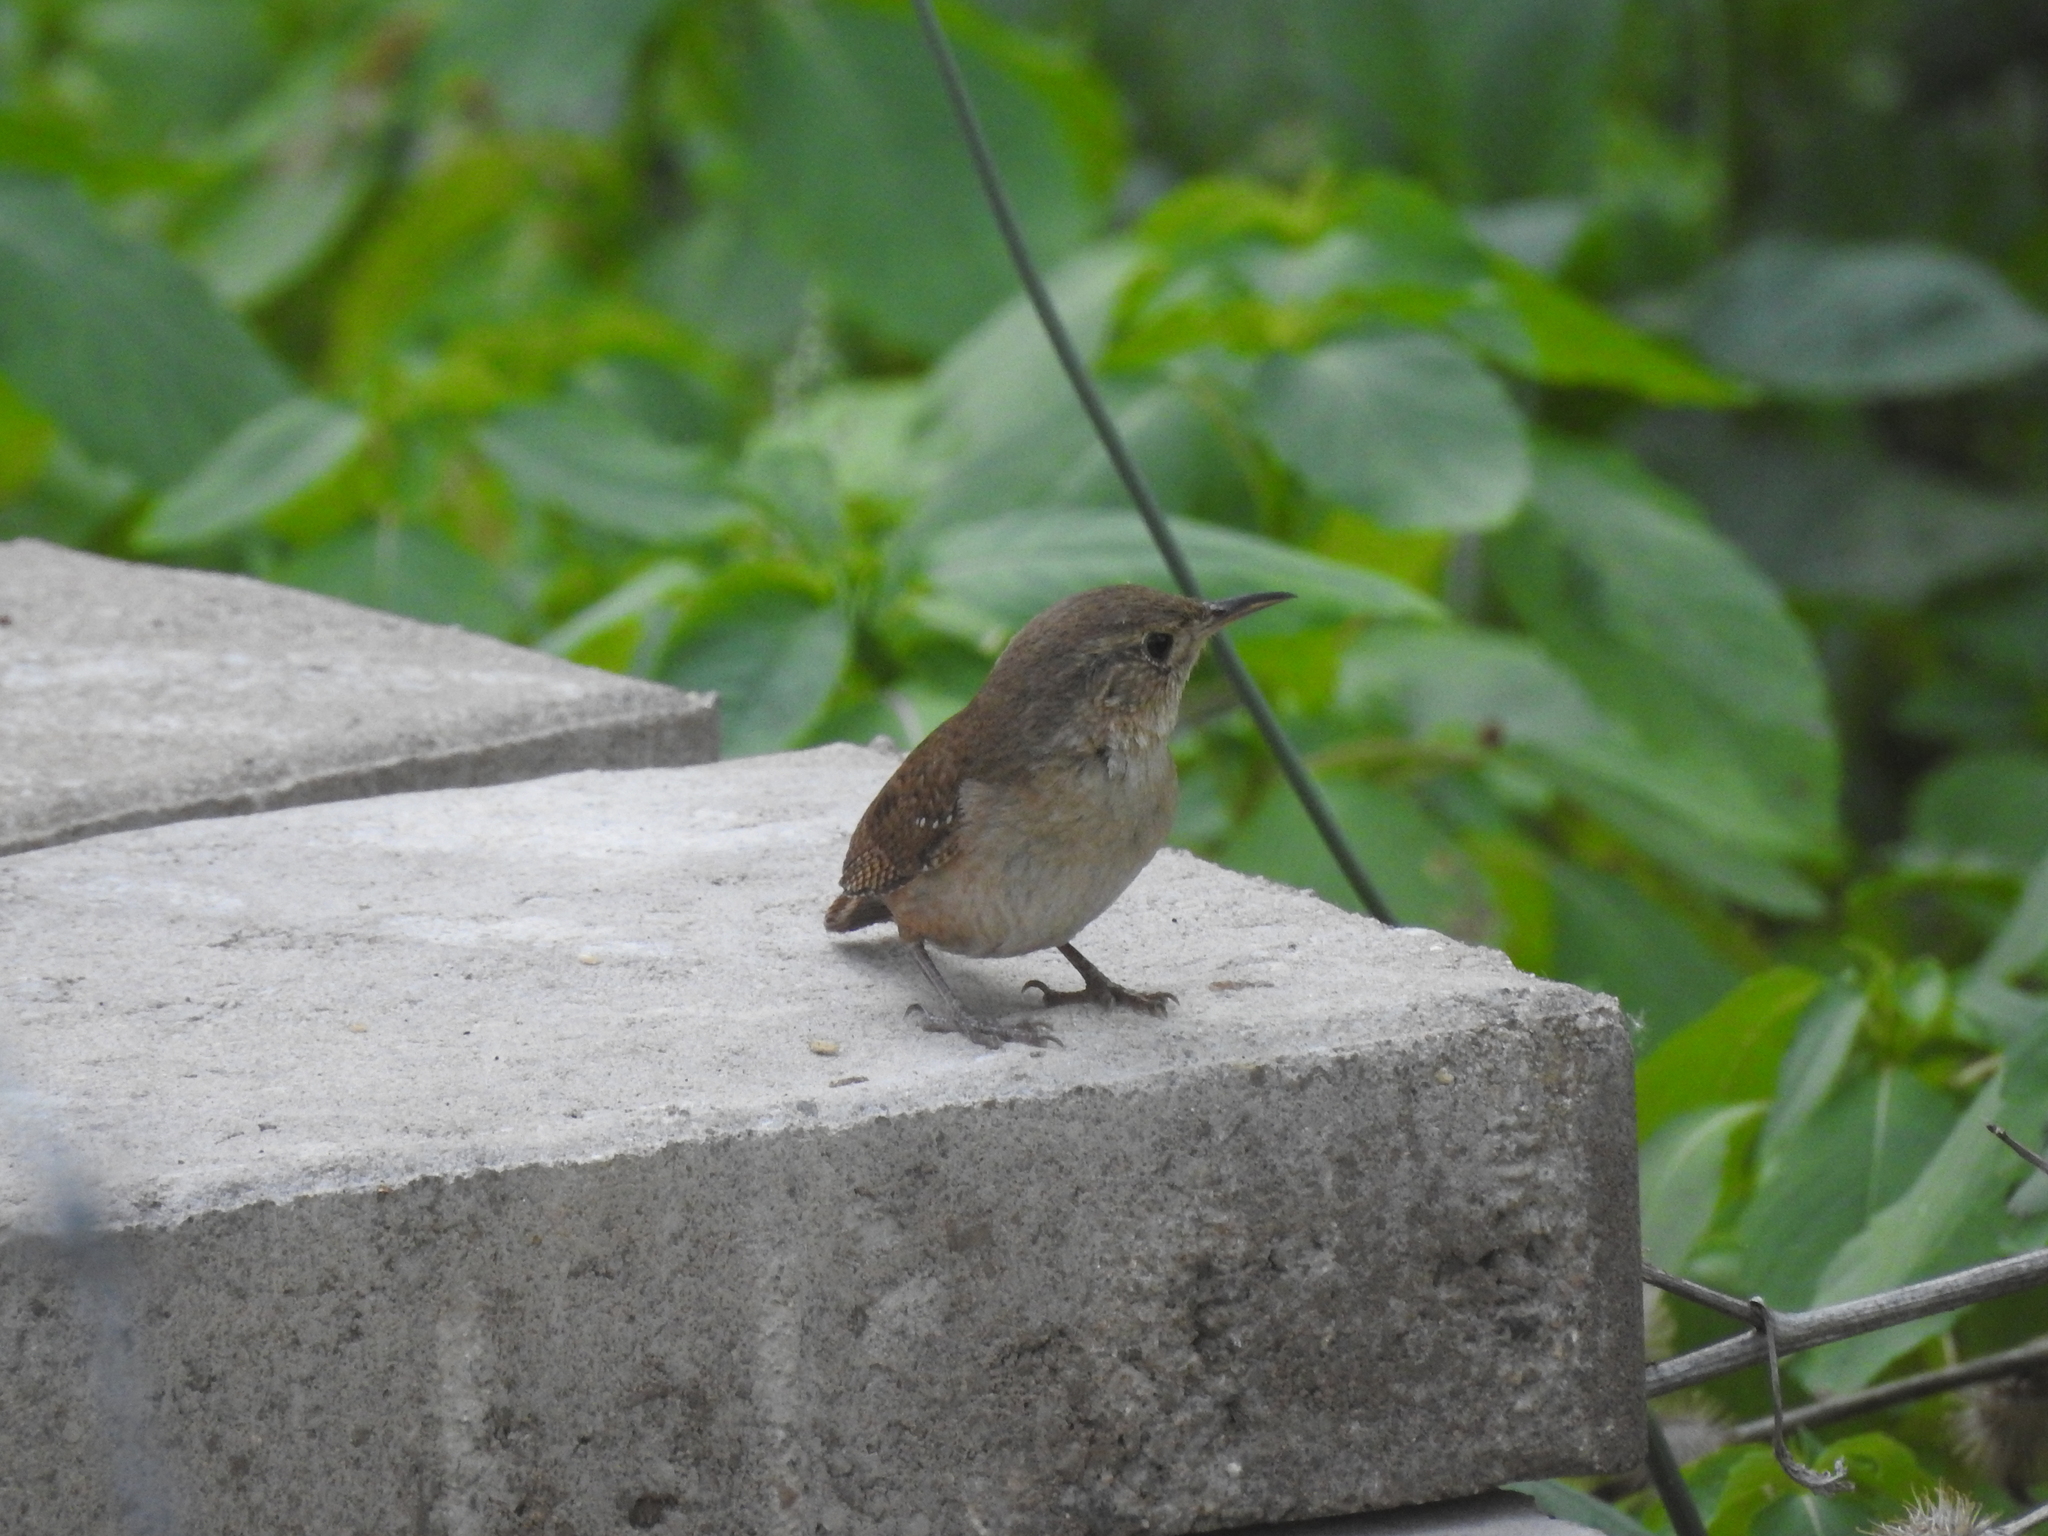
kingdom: Animalia
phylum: Chordata
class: Aves
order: Passeriformes
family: Troglodytidae
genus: Troglodytes
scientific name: Troglodytes aedon
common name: House wren
